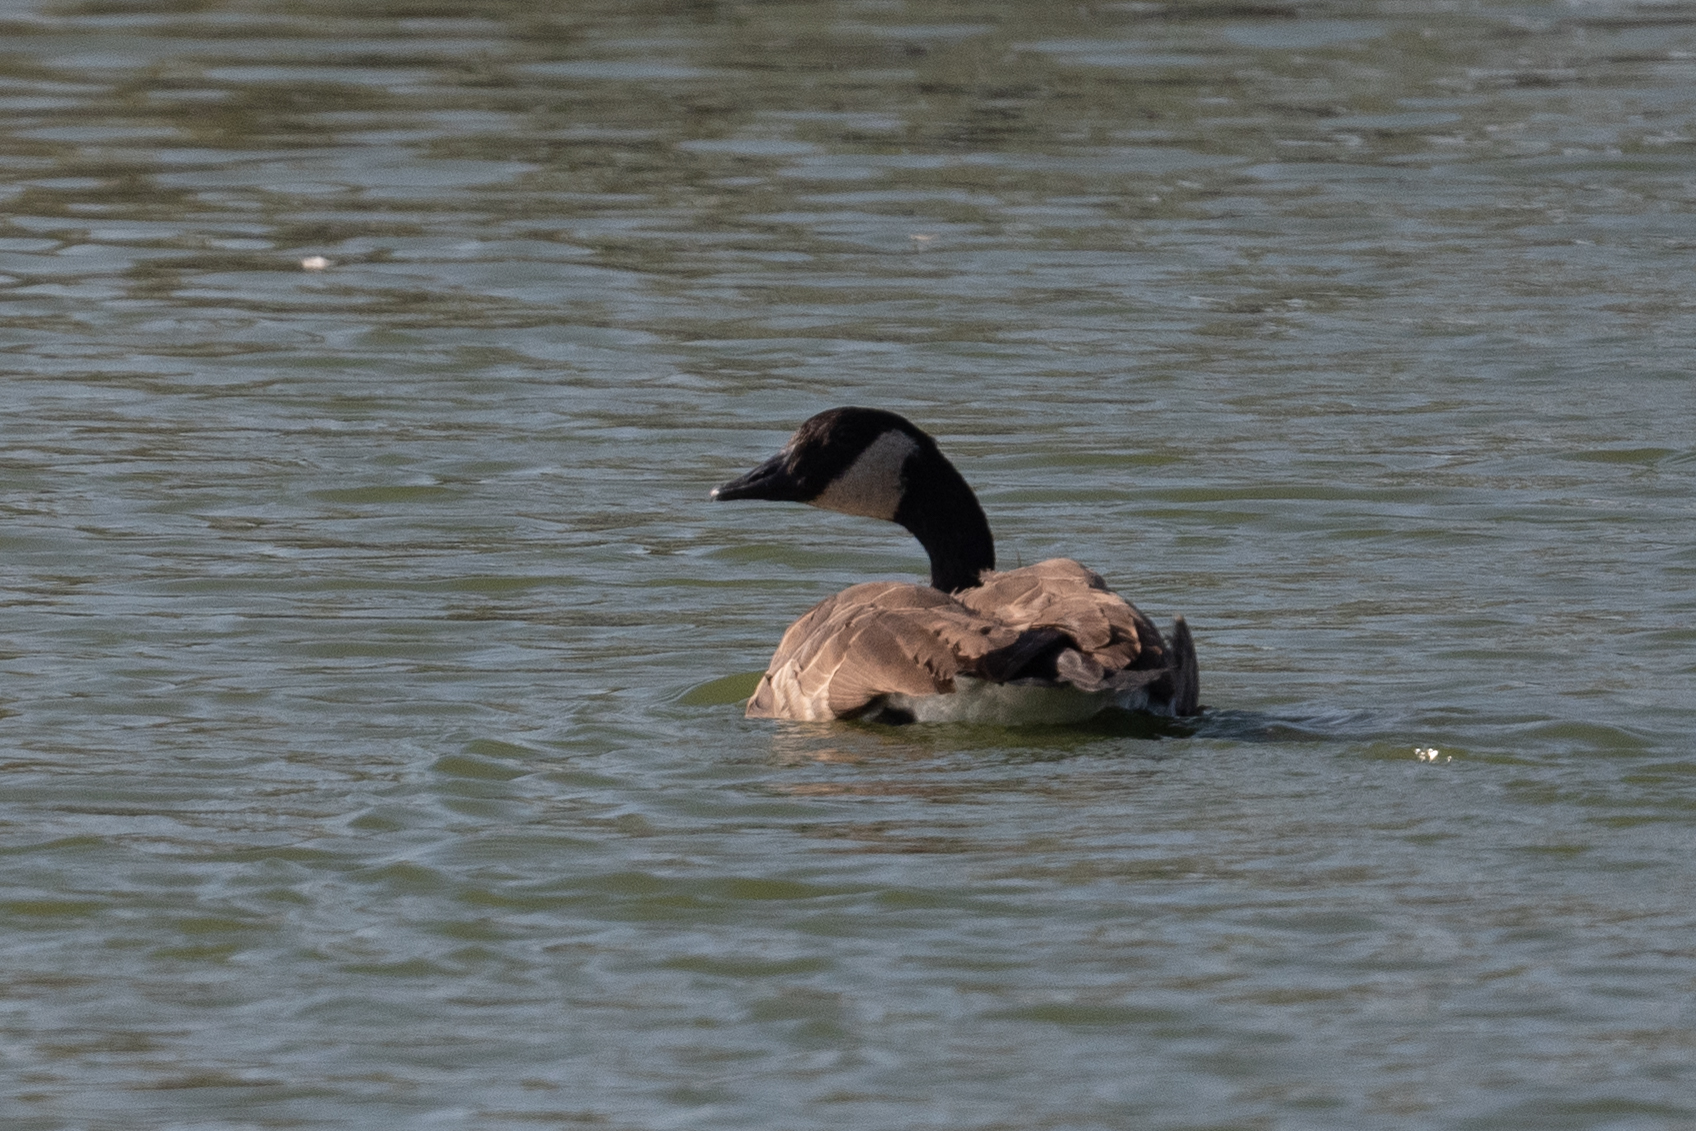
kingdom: Animalia
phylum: Chordata
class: Aves
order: Anseriformes
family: Anatidae
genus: Branta
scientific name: Branta canadensis
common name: Canada goose
